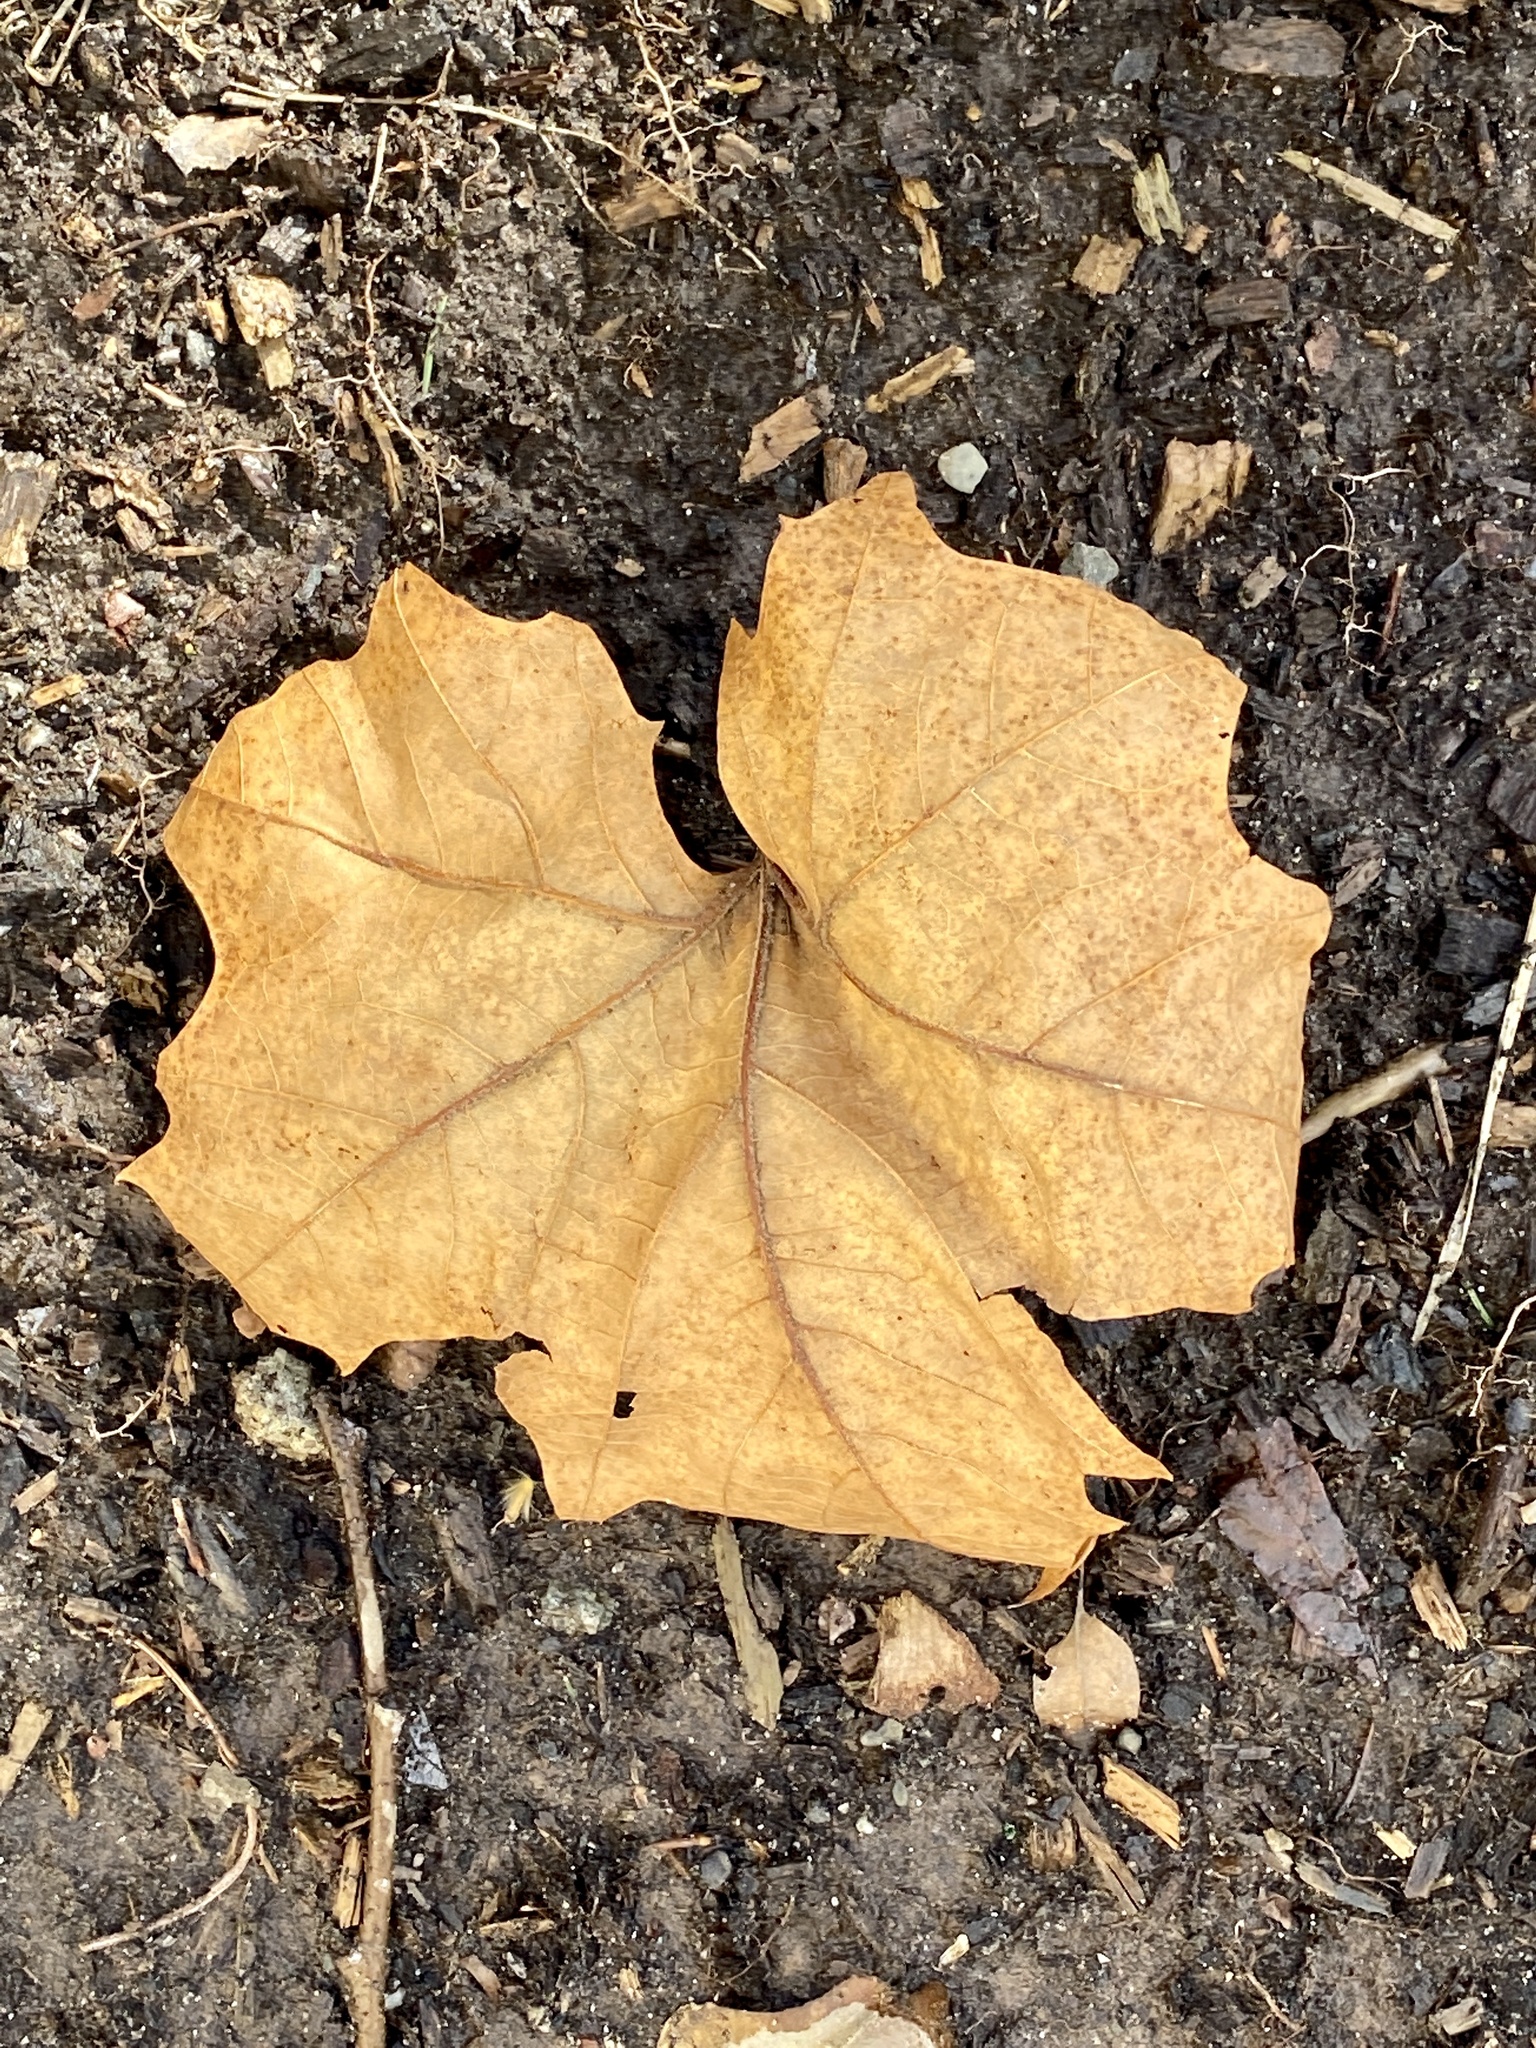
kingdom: Plantae
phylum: Tracheophyta
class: Magnoliopsida
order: Proteales
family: Platanaceae
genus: Platanus
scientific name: Platanus occidentalis
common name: American sycamore
